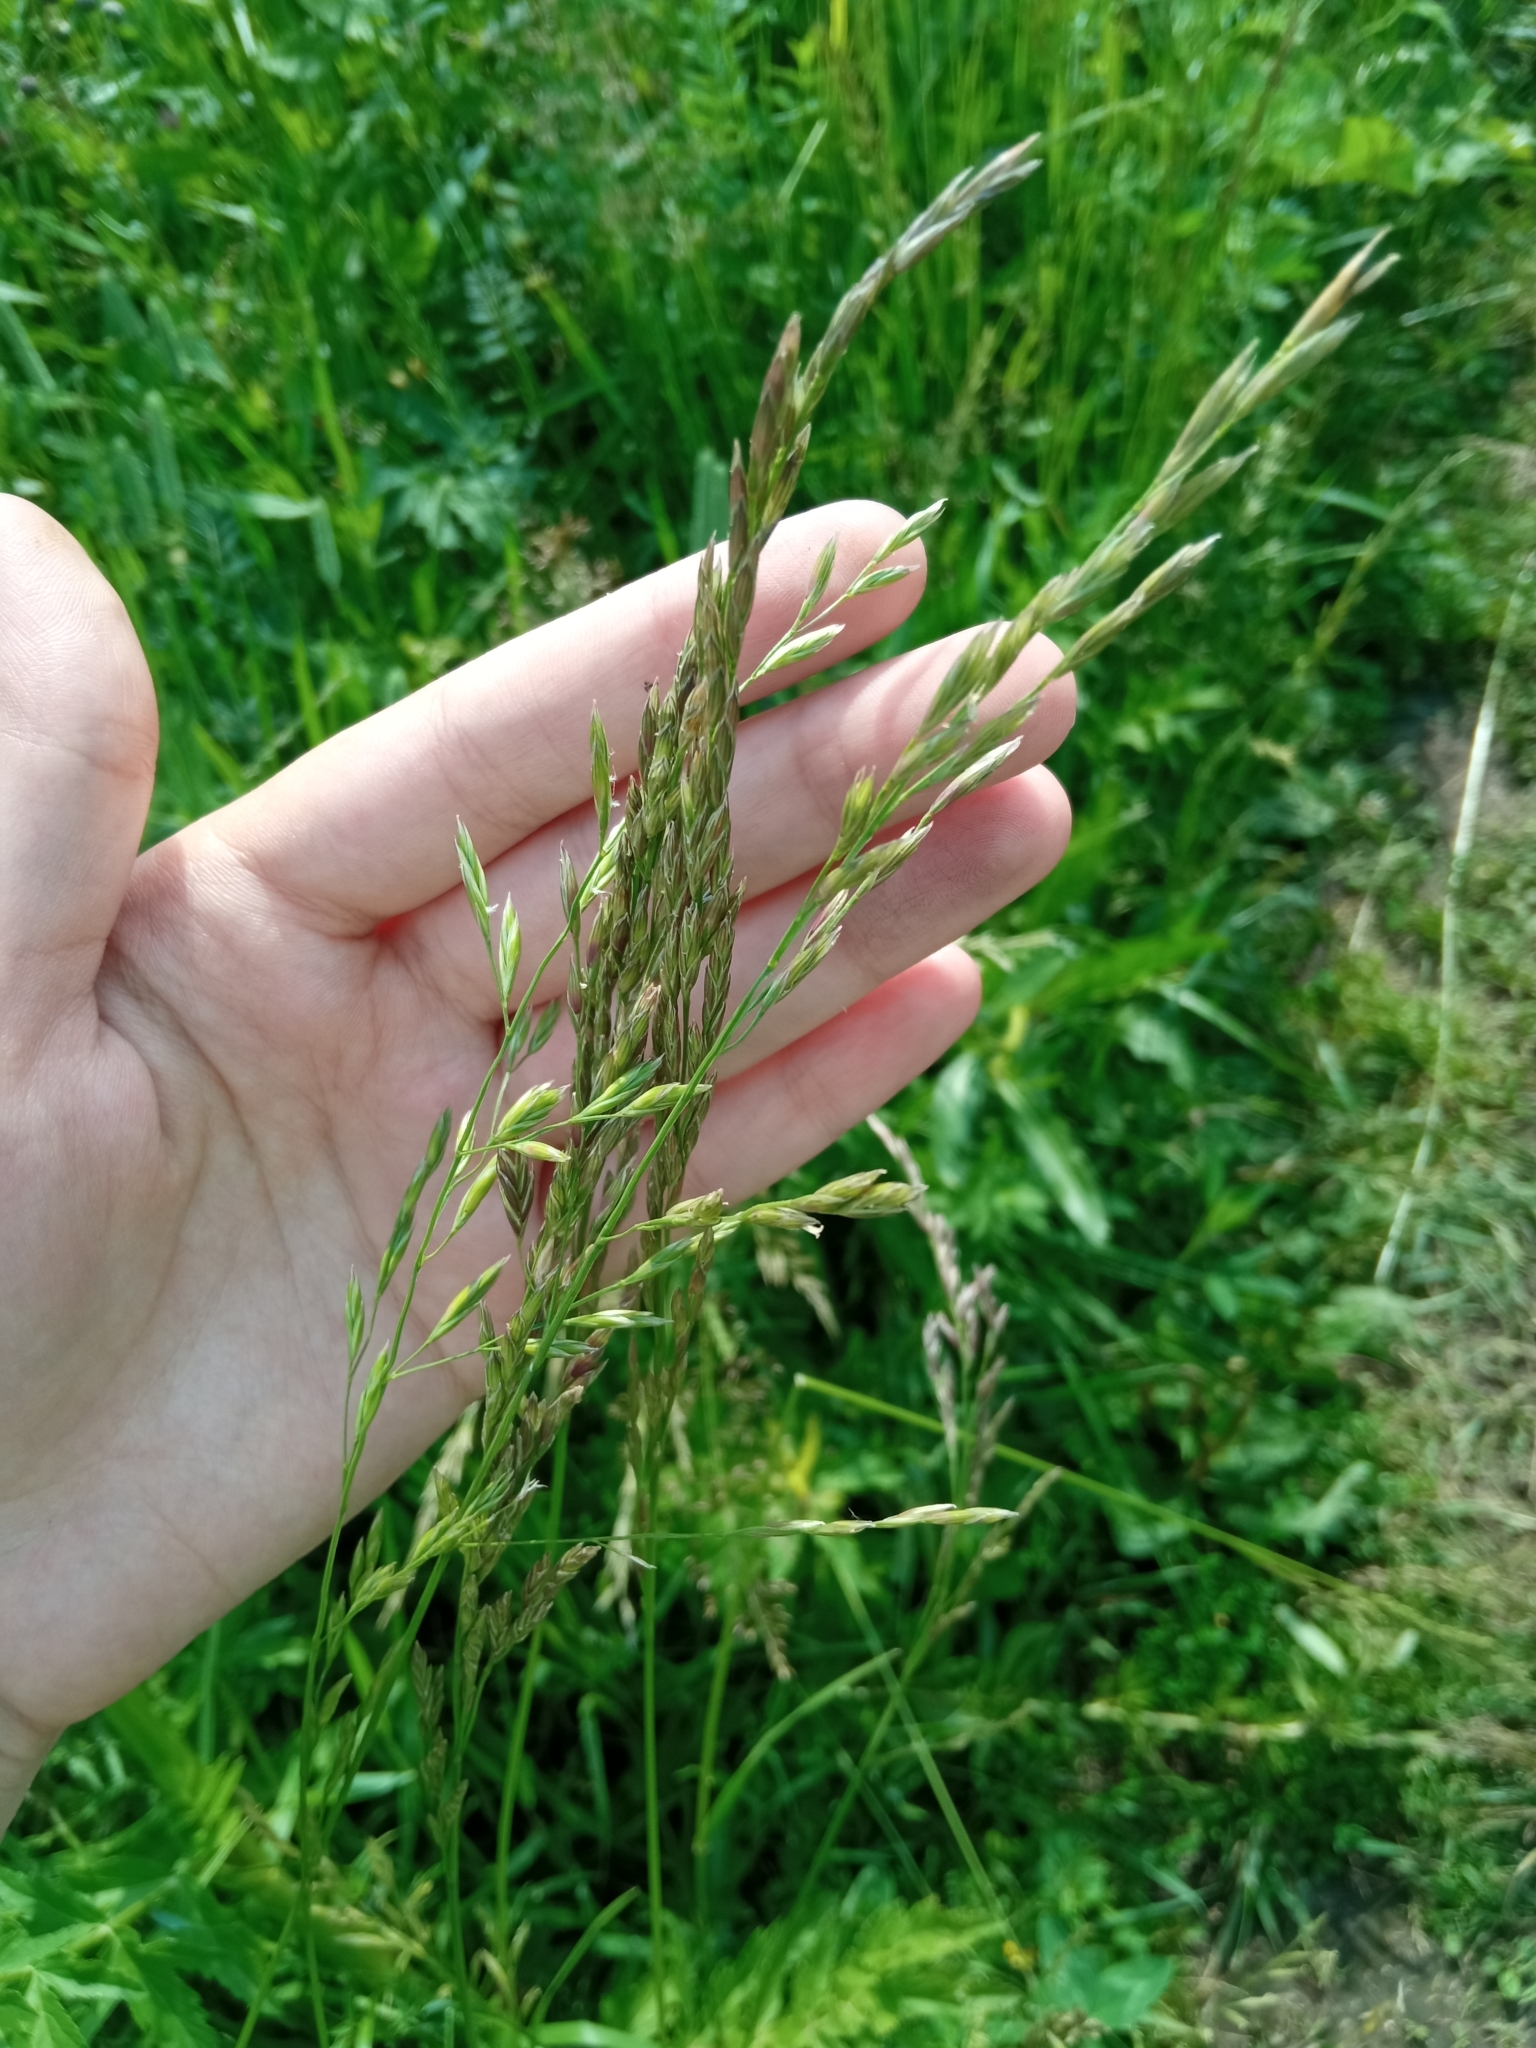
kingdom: Plantae
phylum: Tracheophyta
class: Liliopsida
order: Poales
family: Poaceae
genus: Lolium
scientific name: Lolium pratense
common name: Dover grass
